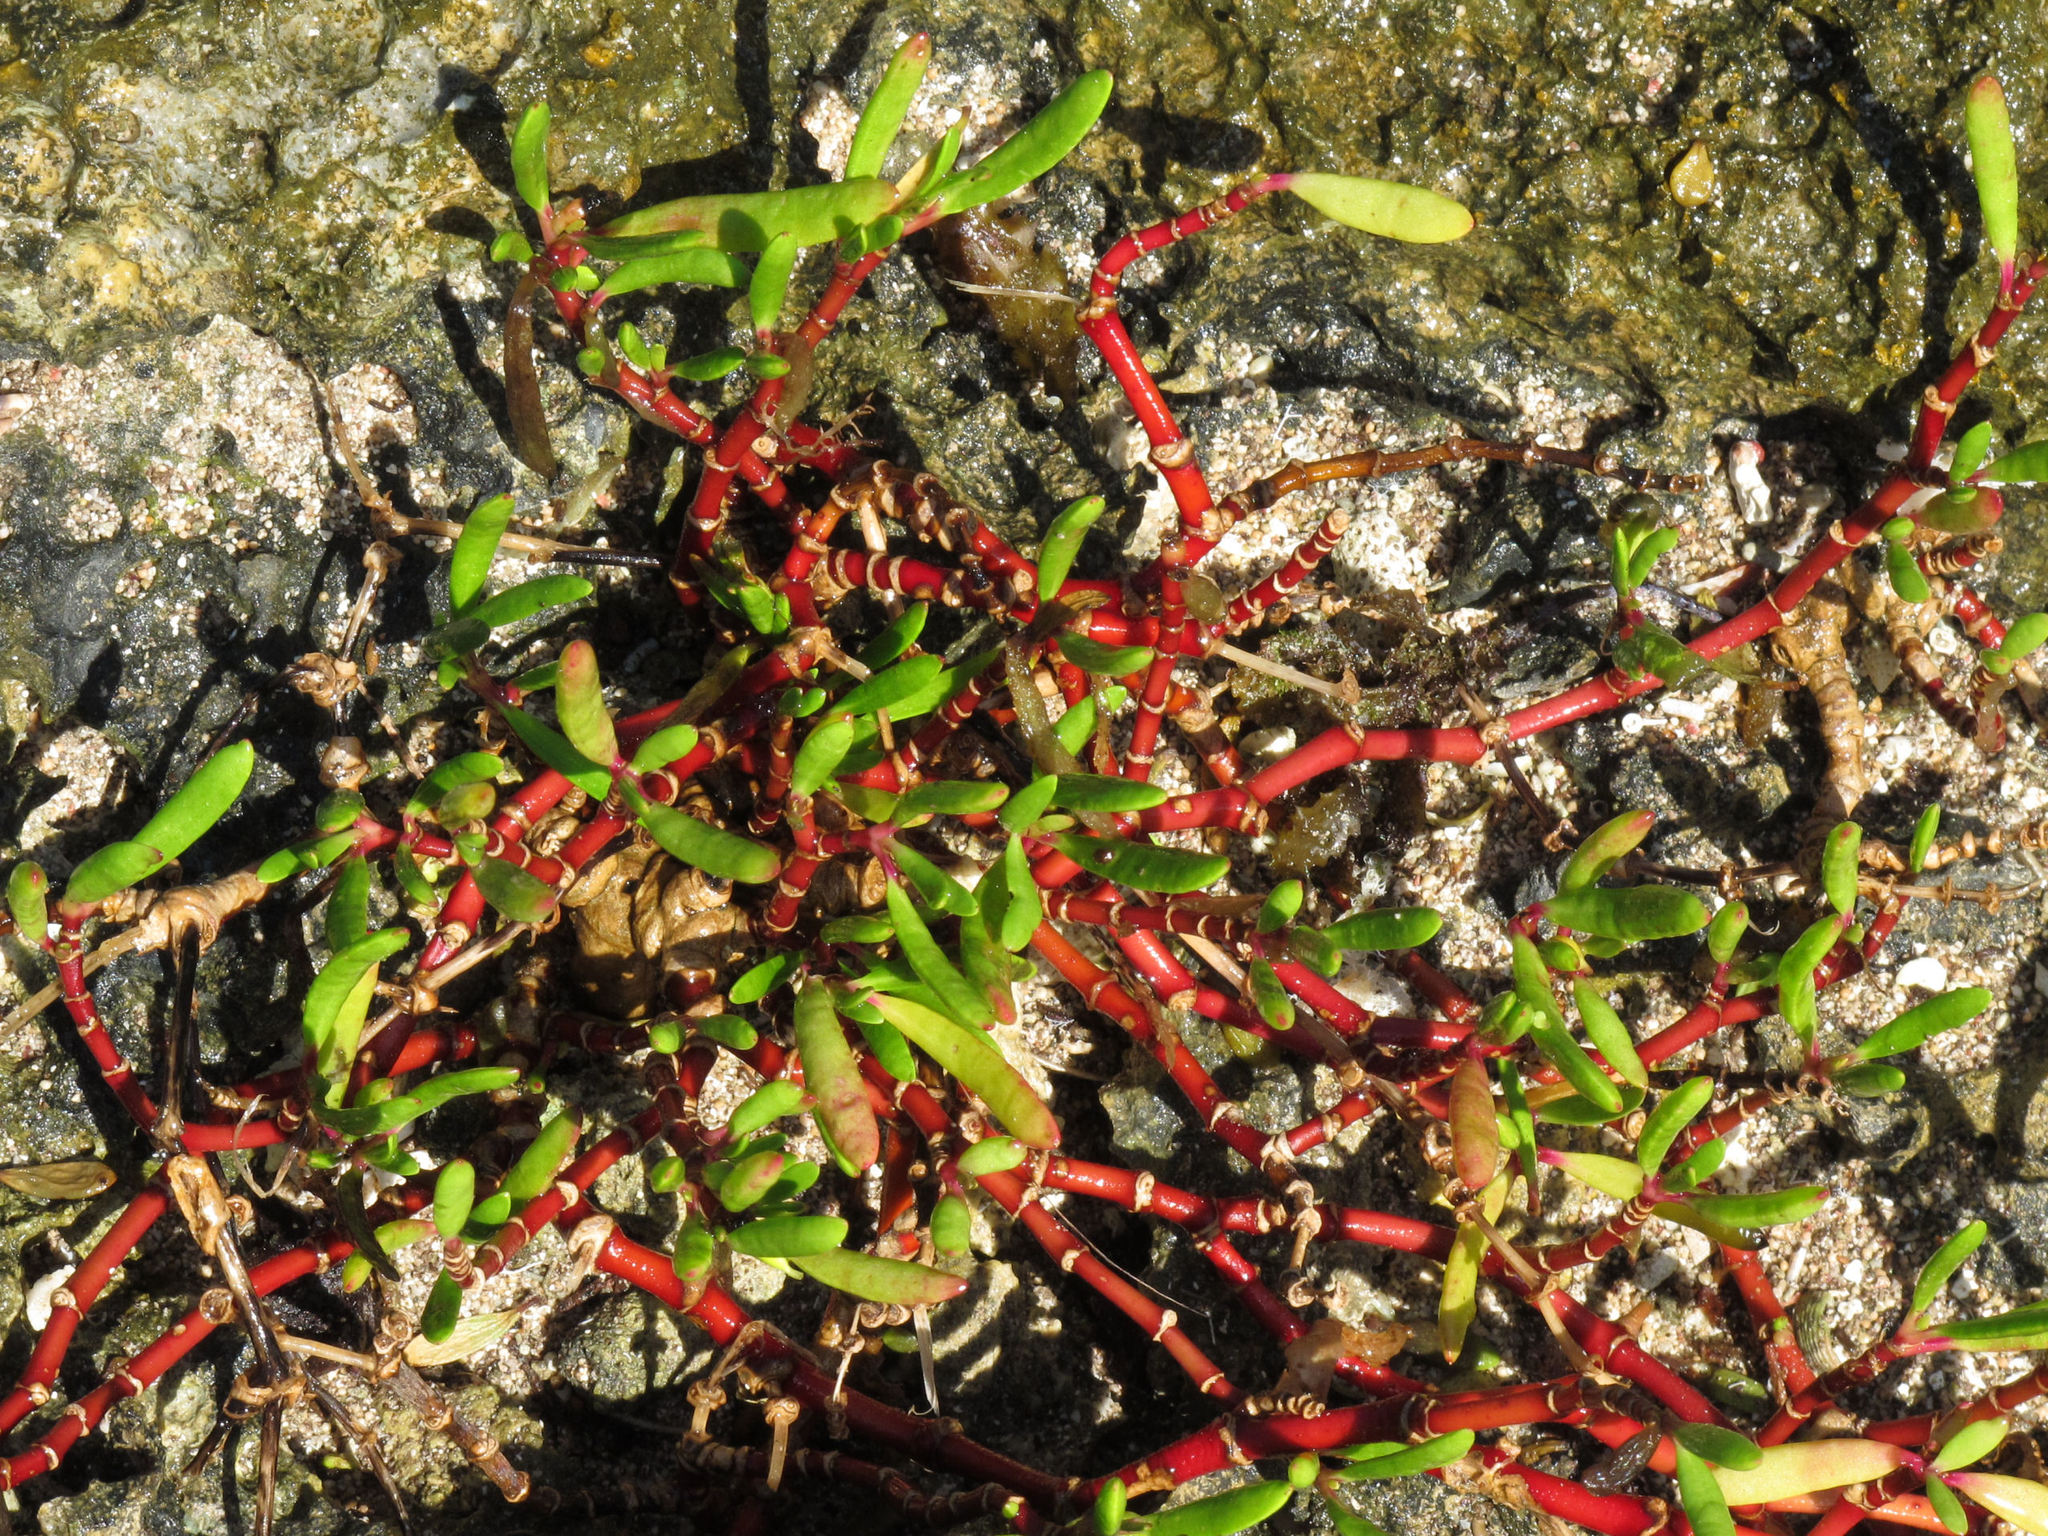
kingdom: Plantae
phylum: Tracheophyta
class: Magnoliopsida
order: Caryophyllales
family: Aizoaceae
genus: Sesuvium
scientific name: Sesuvium portulacastrum
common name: Sea-purslane
